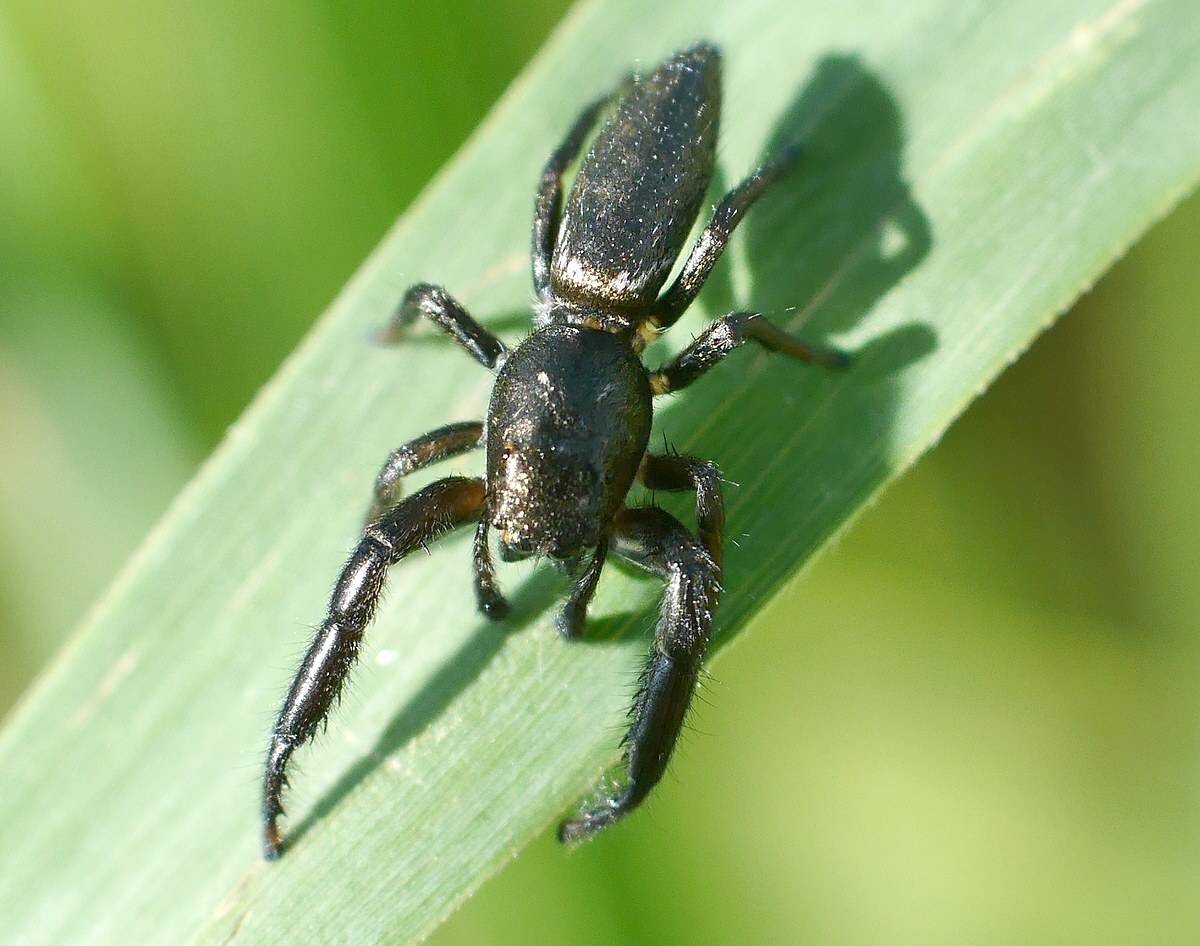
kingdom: Animalia
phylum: Arthropoda
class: Arachnida
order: Araneae
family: Salticidae
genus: Mendoza
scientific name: Mendoza canestrinii
